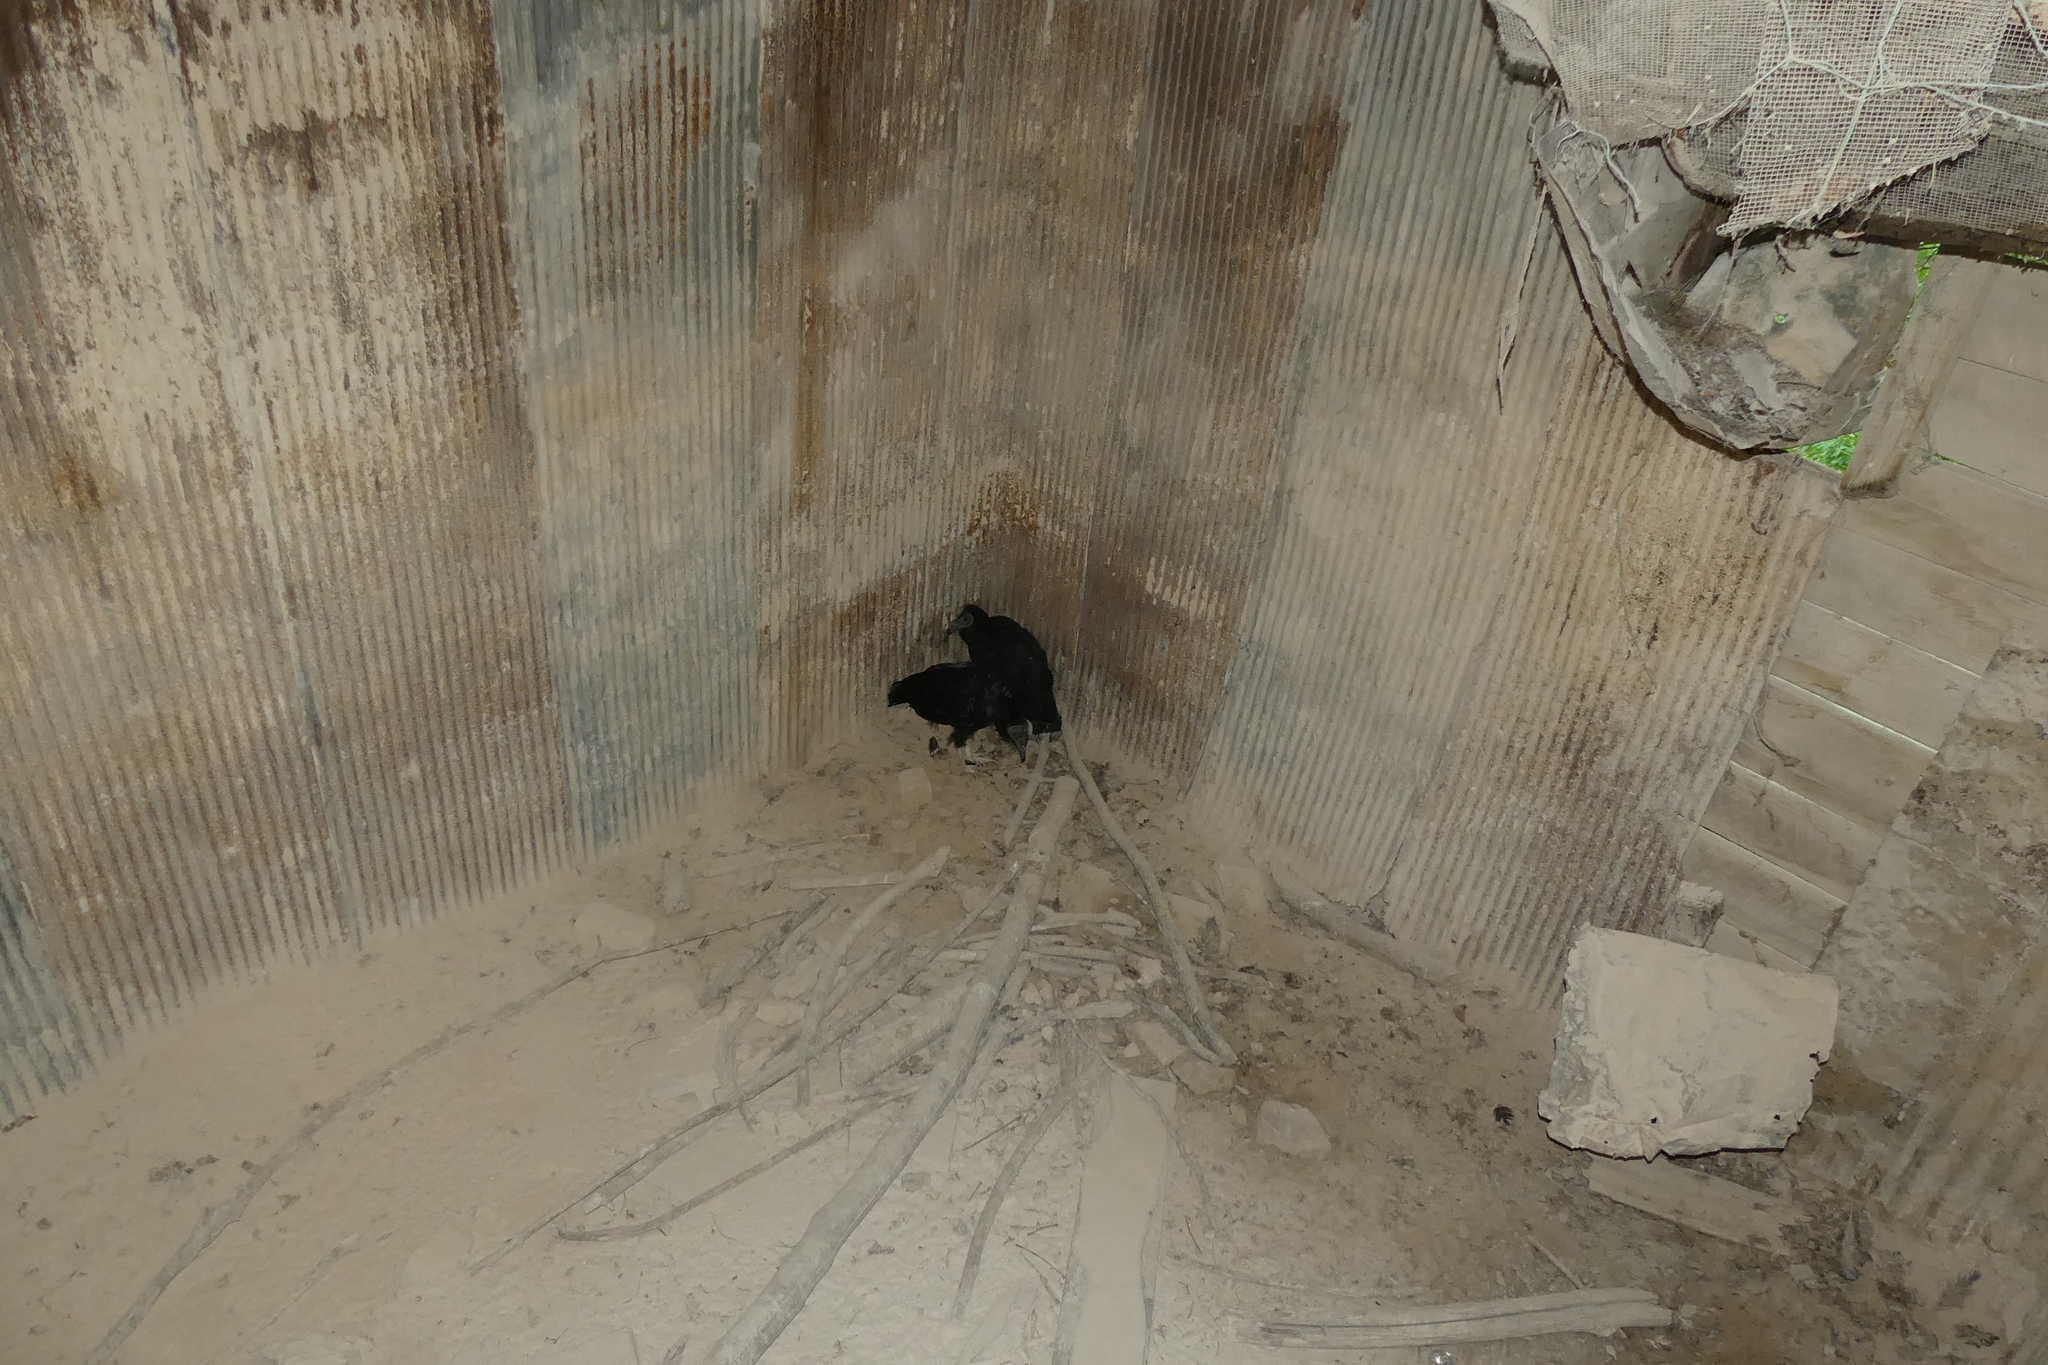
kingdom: Animalia
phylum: Chordata
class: Aves
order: Accipitriformes
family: Cathartidae
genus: Coragyps
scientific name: Coragyps atratus
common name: Black vulture
